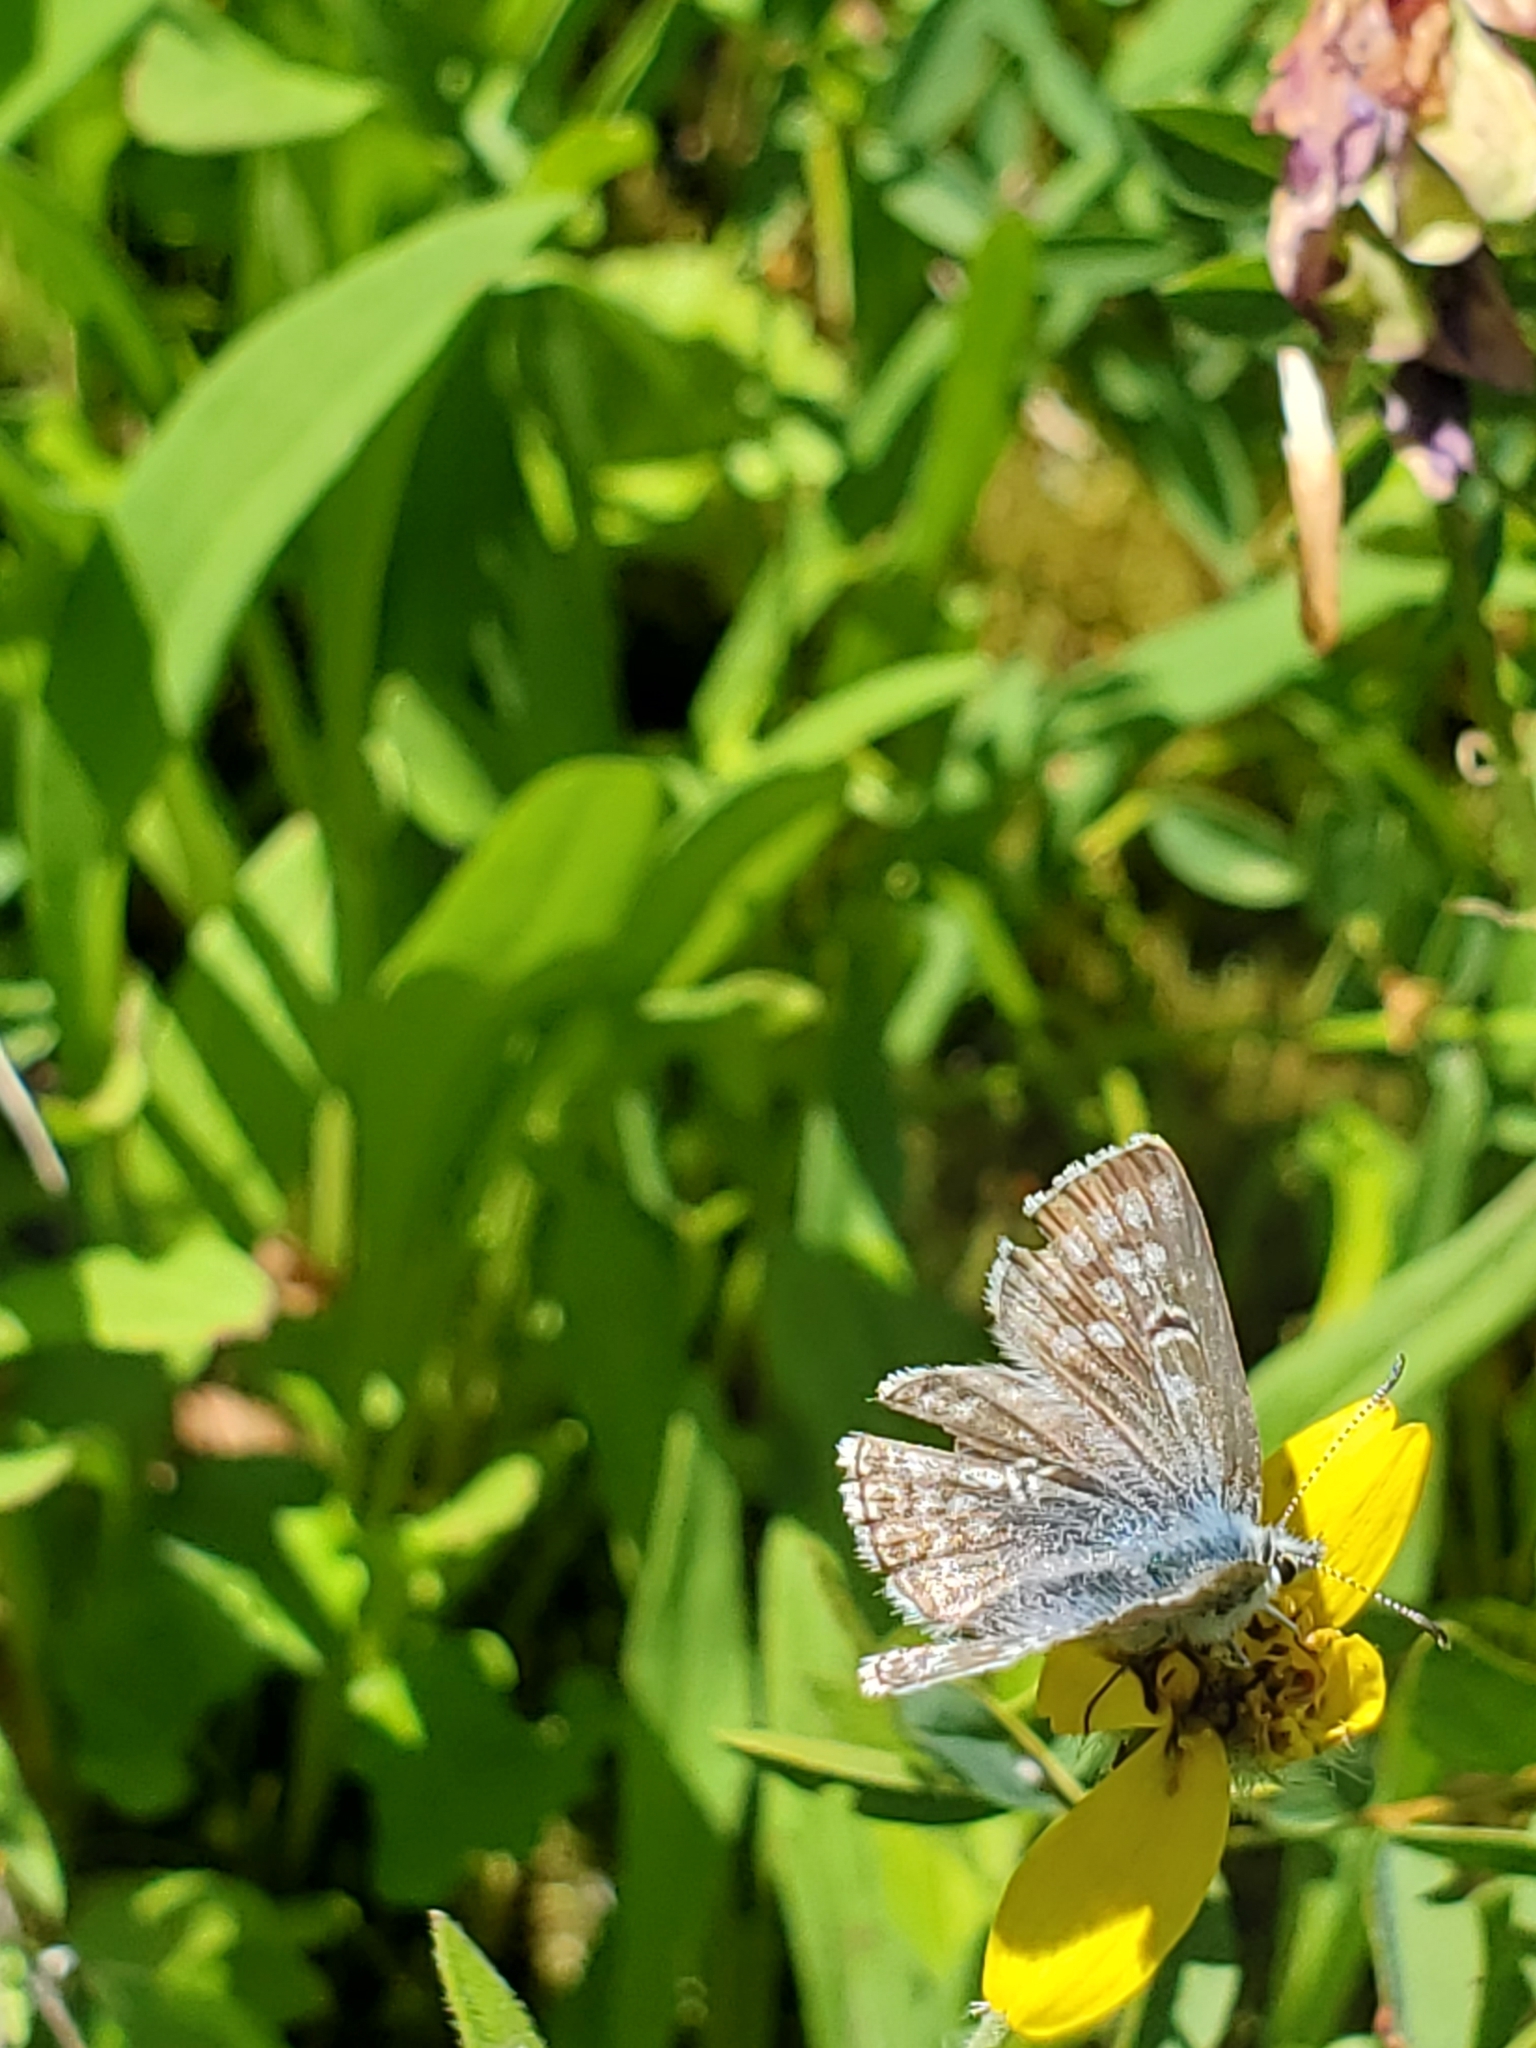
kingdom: Animalia
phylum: Arthropoda
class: Insecta
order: Lepidoptera
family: Lycaenidae
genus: Agriades
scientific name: Agriades glandon
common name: Glandon blue
